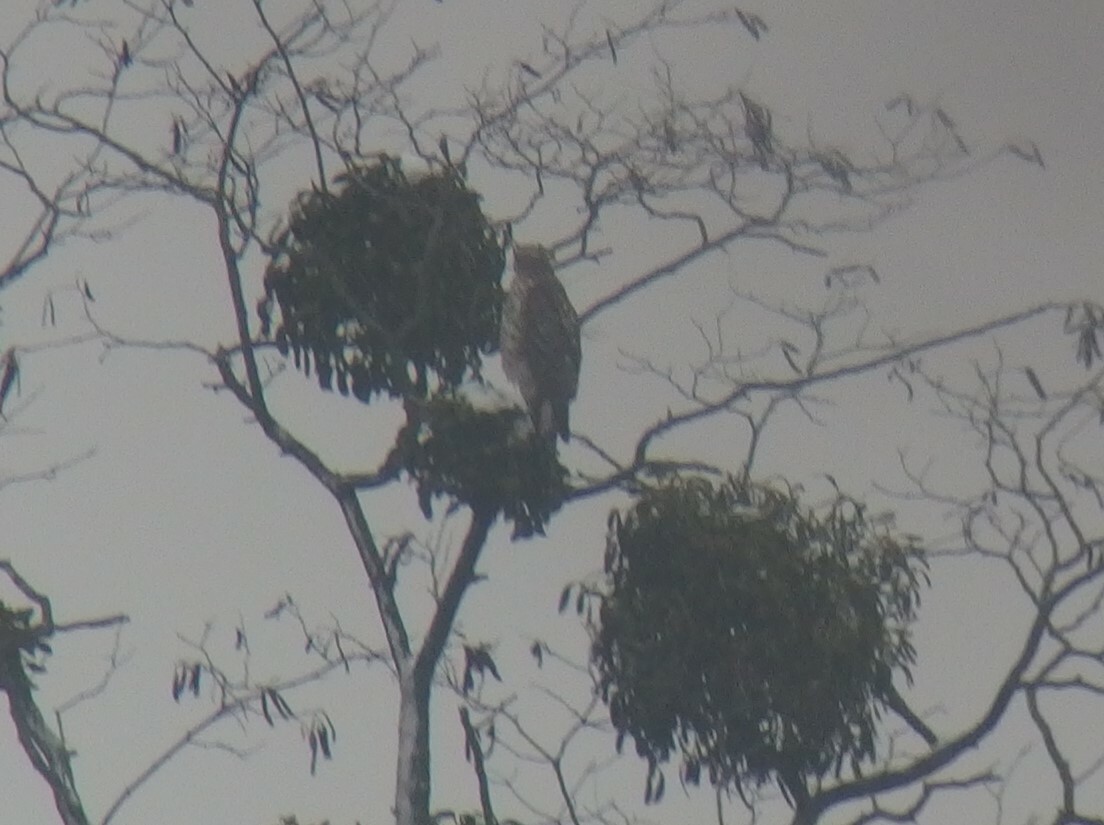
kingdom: Animalia
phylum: Chordata
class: Aves
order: Accipitriformes
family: Accipitridae
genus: Accipiter
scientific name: Accipiter gentilis
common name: Northern goshawk
